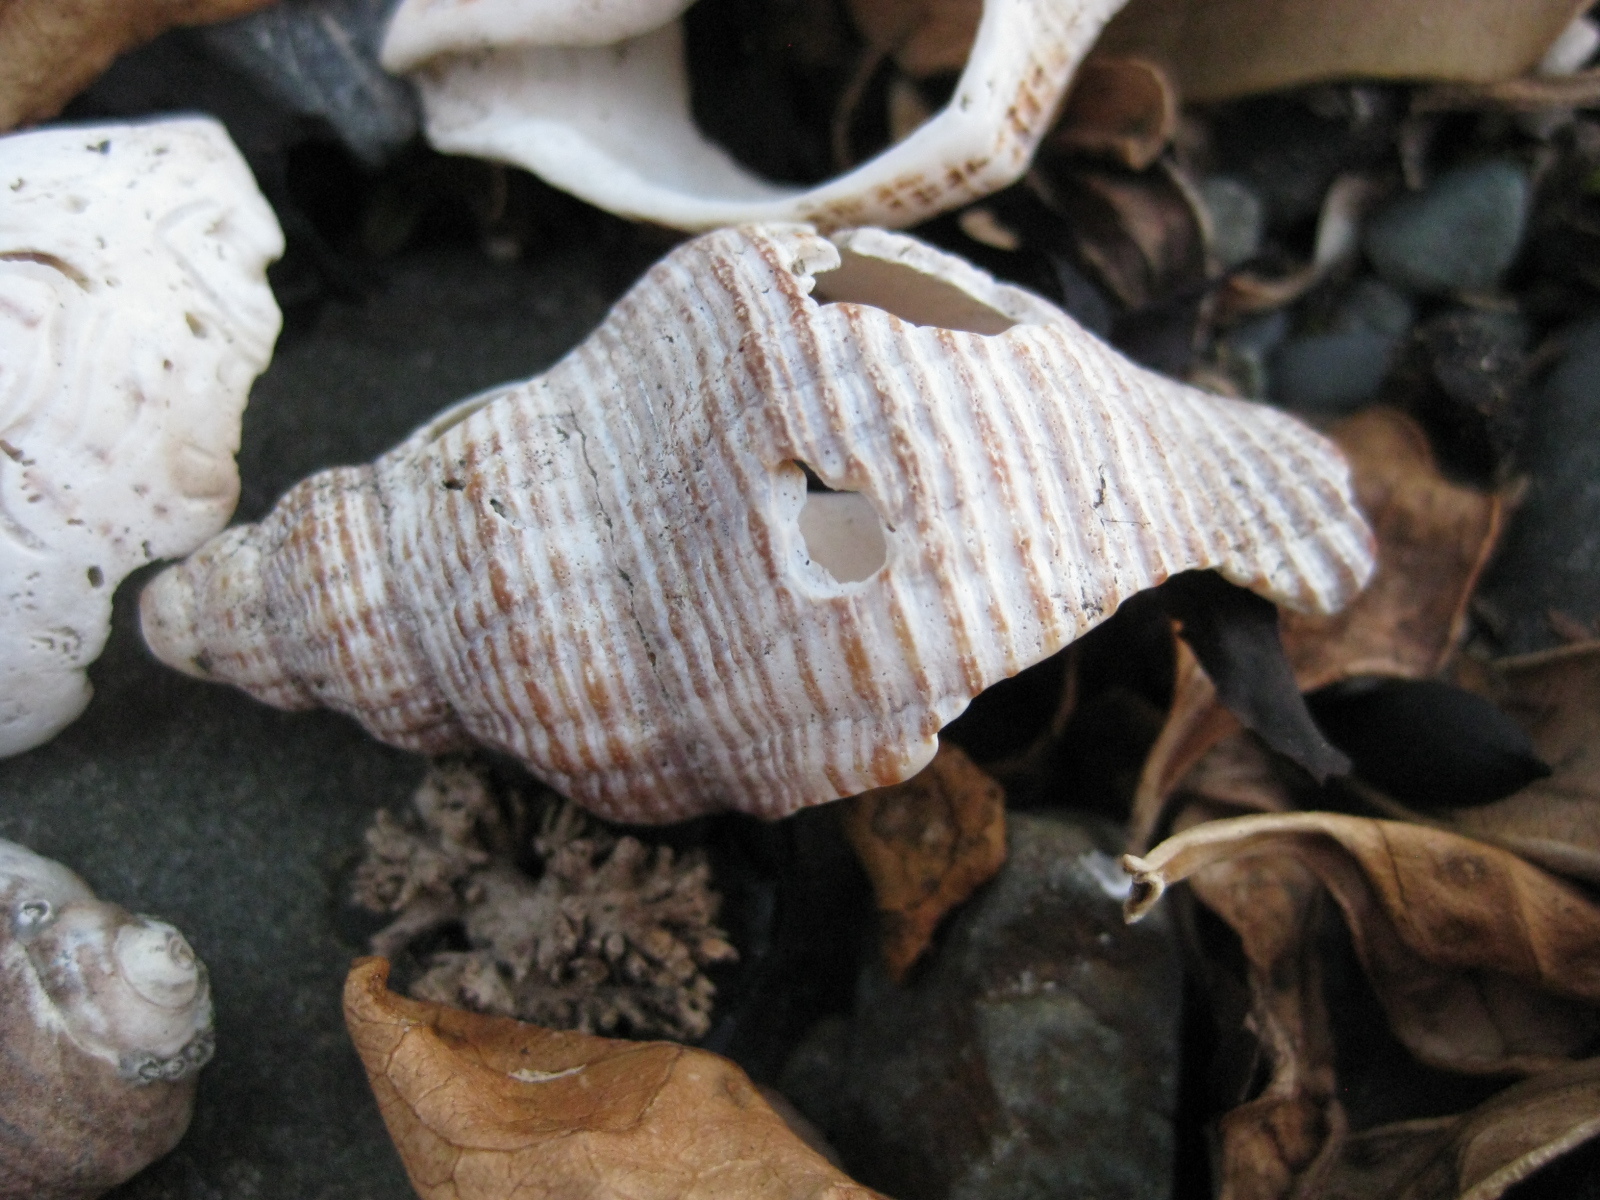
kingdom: Animalia
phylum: Mollusca
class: Gastropoda
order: Neogastropoda
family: Austrosiphonidae
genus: Penion
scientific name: Penion sulcatus
